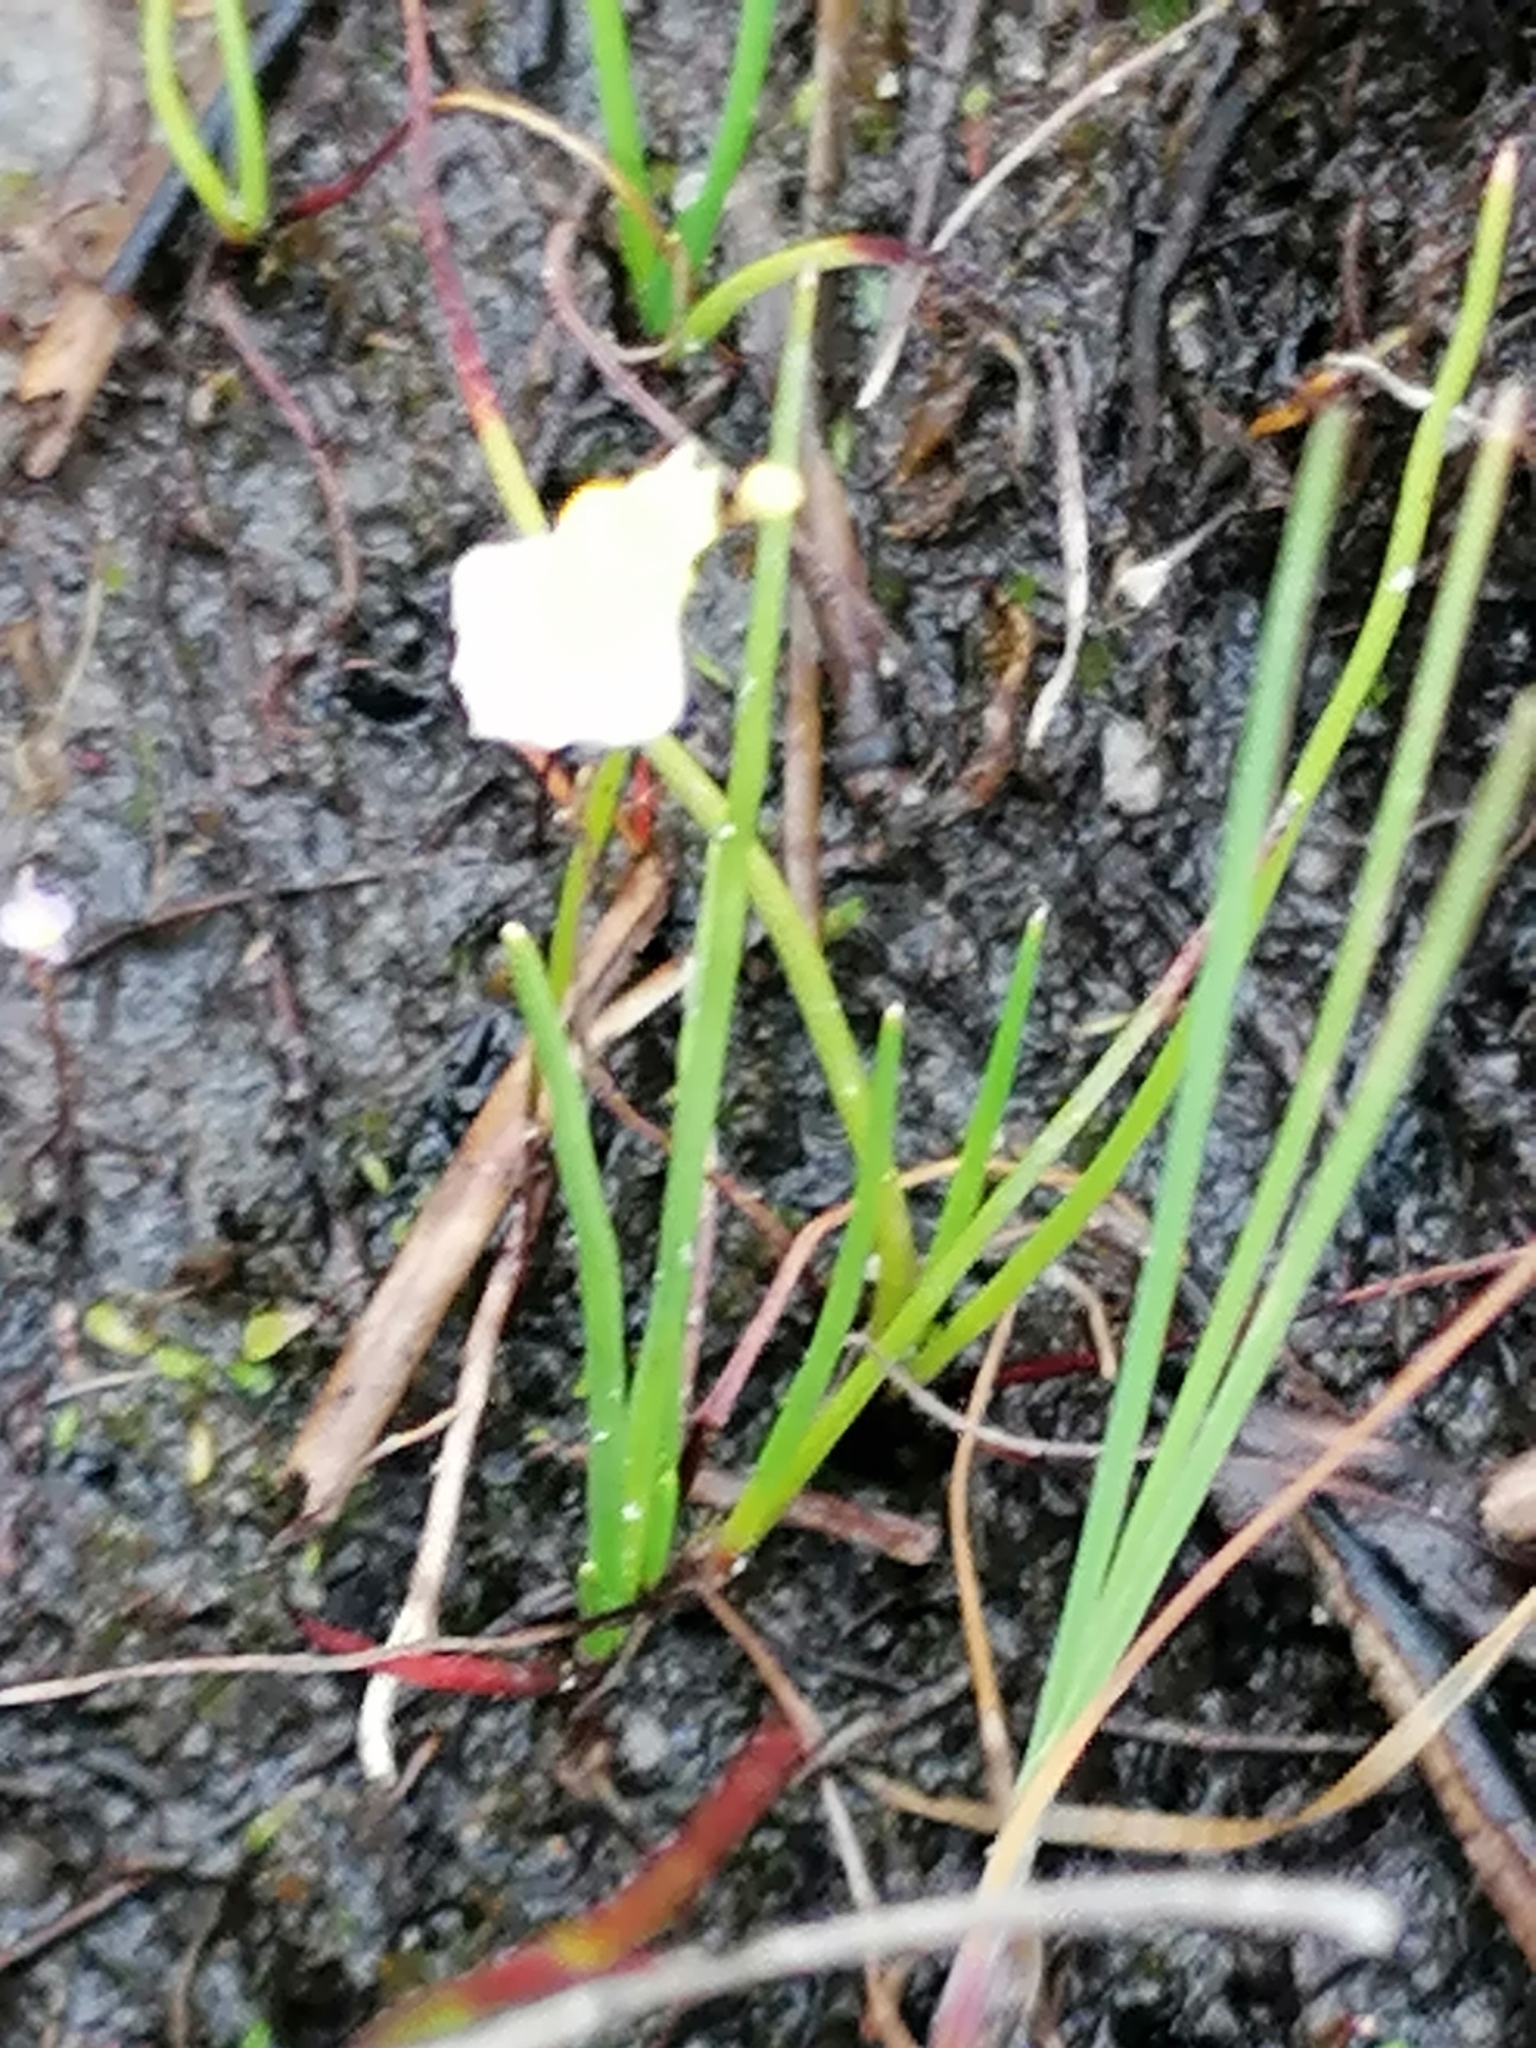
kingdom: Plantae
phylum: Tracheophyta
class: Magnoliopsida
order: Lamiales
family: Lentibulariaceae
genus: Utricularia
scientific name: Utricularia bisquamata
